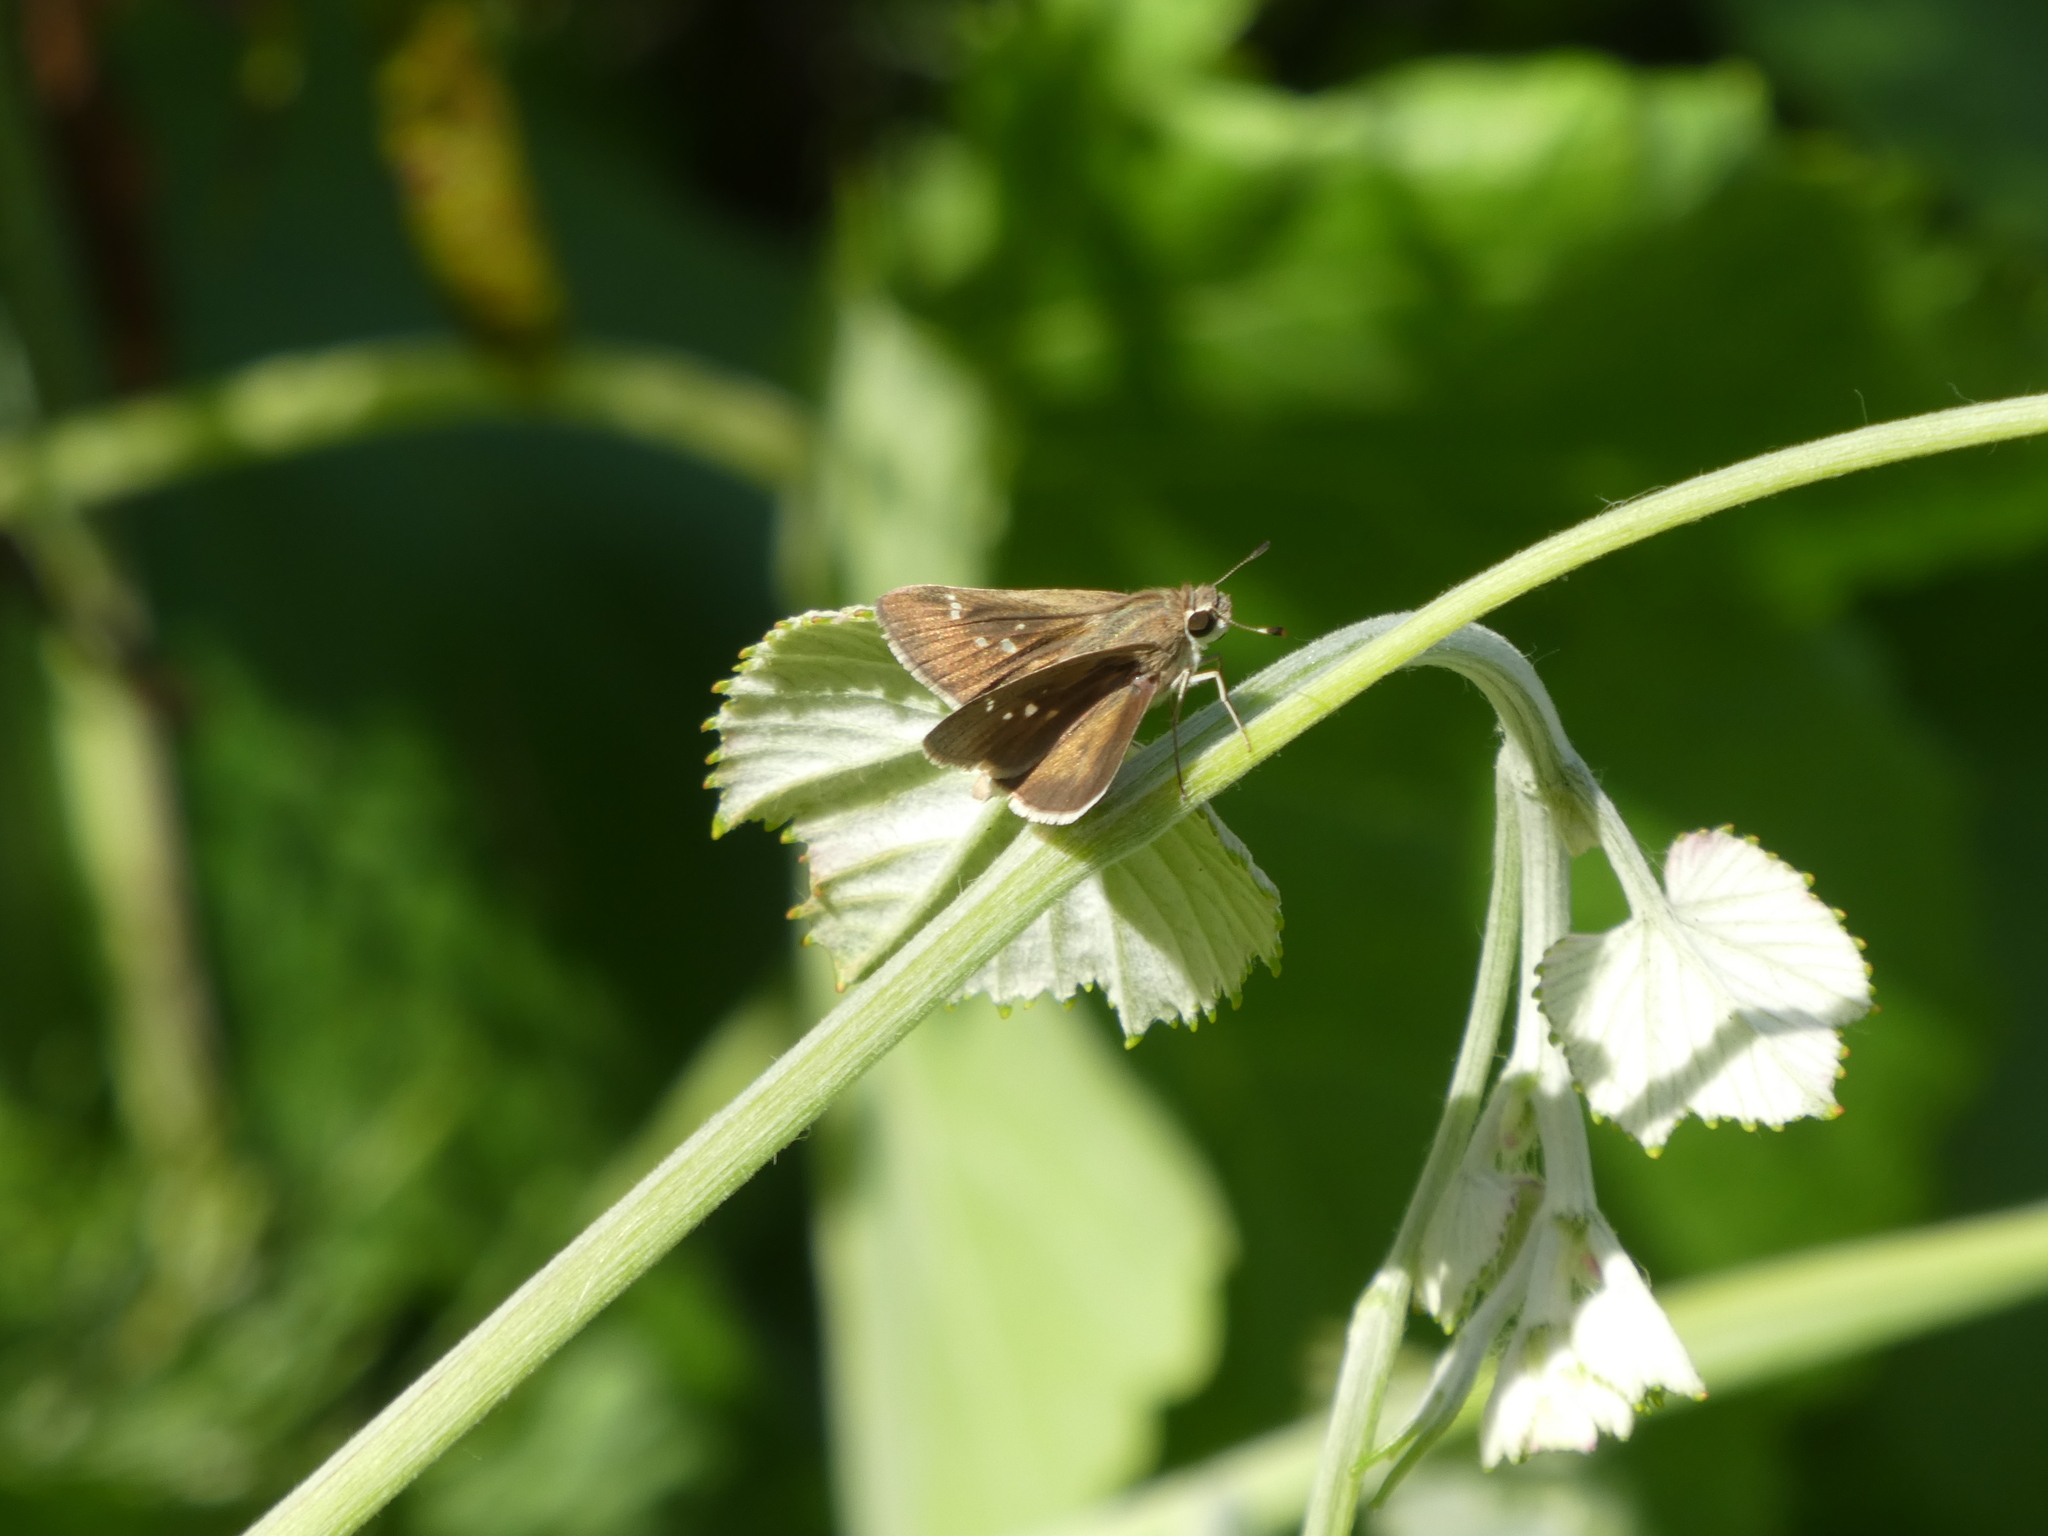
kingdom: Animalia
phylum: Arthropoda
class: Insecta
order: Lepidoptera
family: Hesperiidae
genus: Lerodea
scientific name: Lerodea eufala
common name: Eufala skipper
